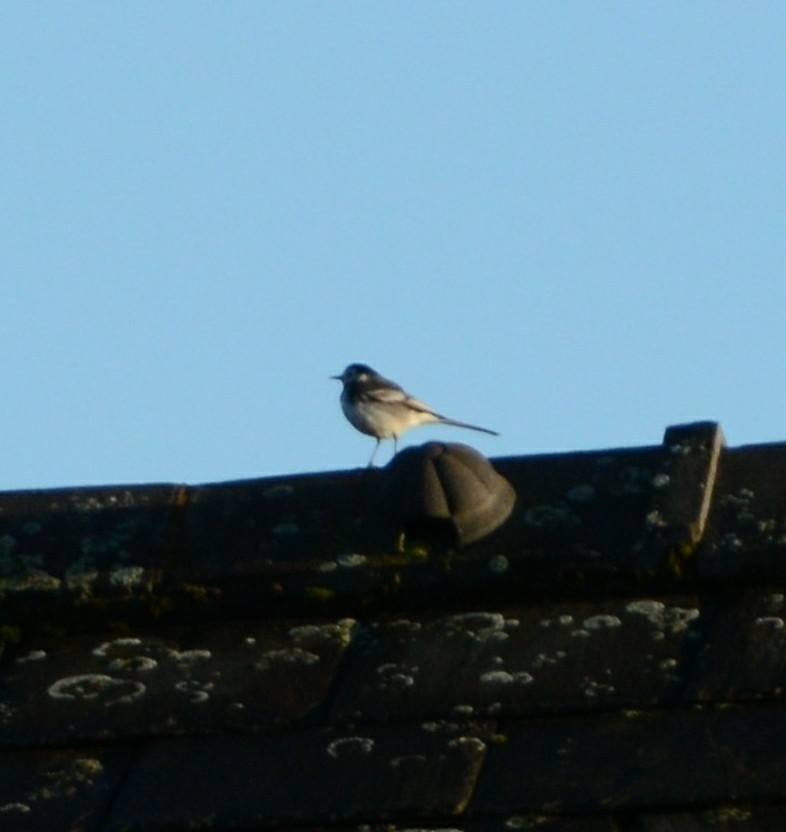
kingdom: Animalia
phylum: Chordata
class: Aves
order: Passeriformes
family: Motacillidae
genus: Motacilla
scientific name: Motacilla alba
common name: White wagtail
